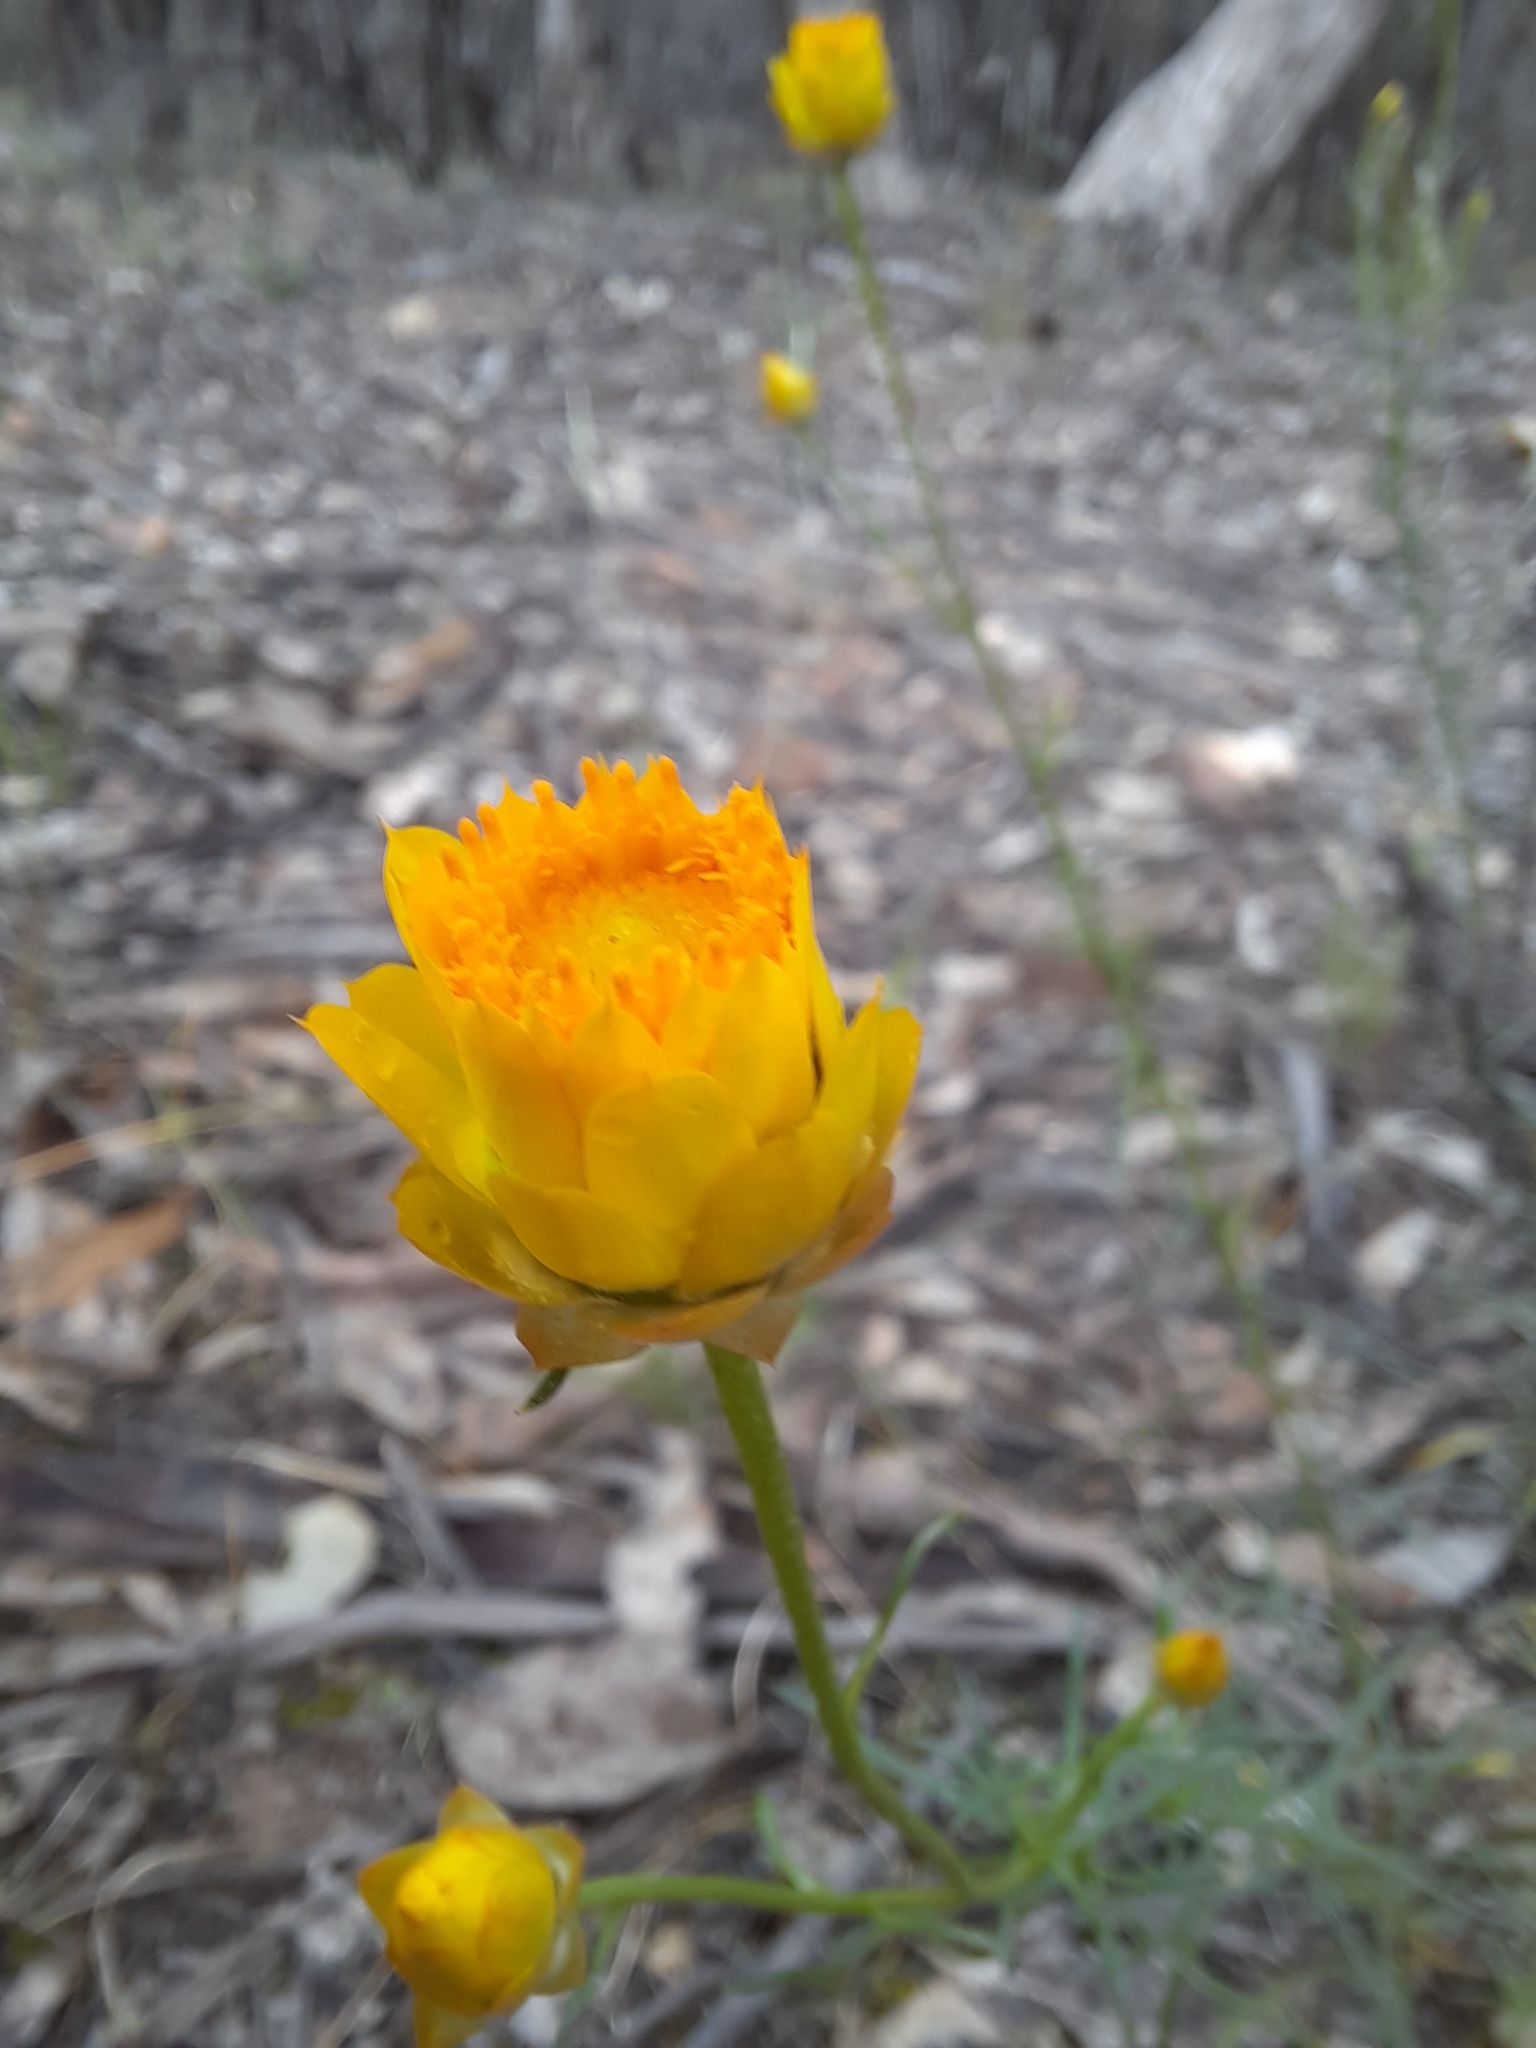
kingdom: Plantae
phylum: Tracheophyta
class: Magnoliopsida
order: Asterales
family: Asteraceae
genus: Xerochrysum
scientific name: Xerochrysum viscosum
